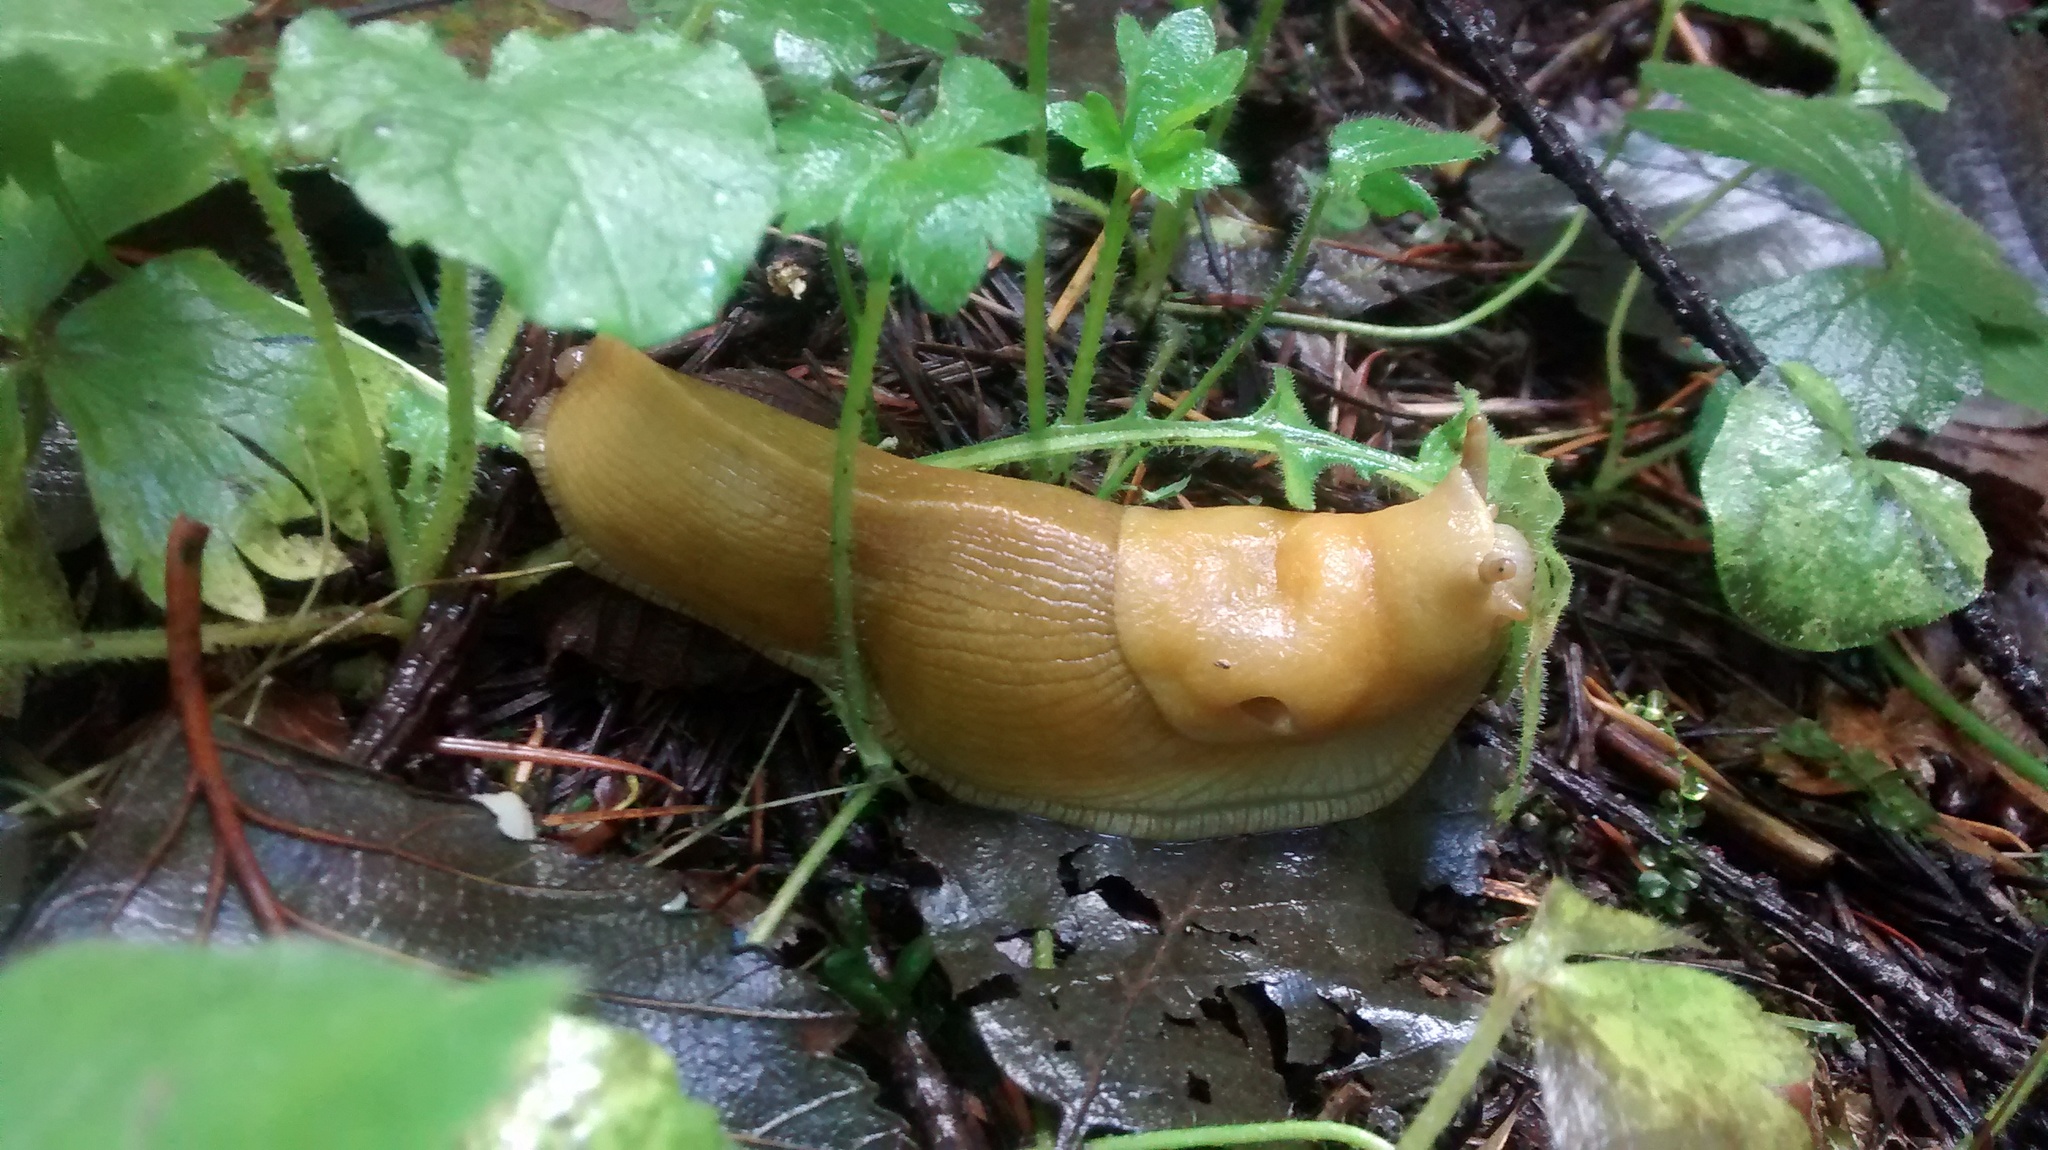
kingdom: Animalia
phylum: Mollusca
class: Gastropoda
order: Stylommatophora
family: Ariolimacidae
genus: Ariolimax
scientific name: Ariolimax columbianus
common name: Pacific banana slug
